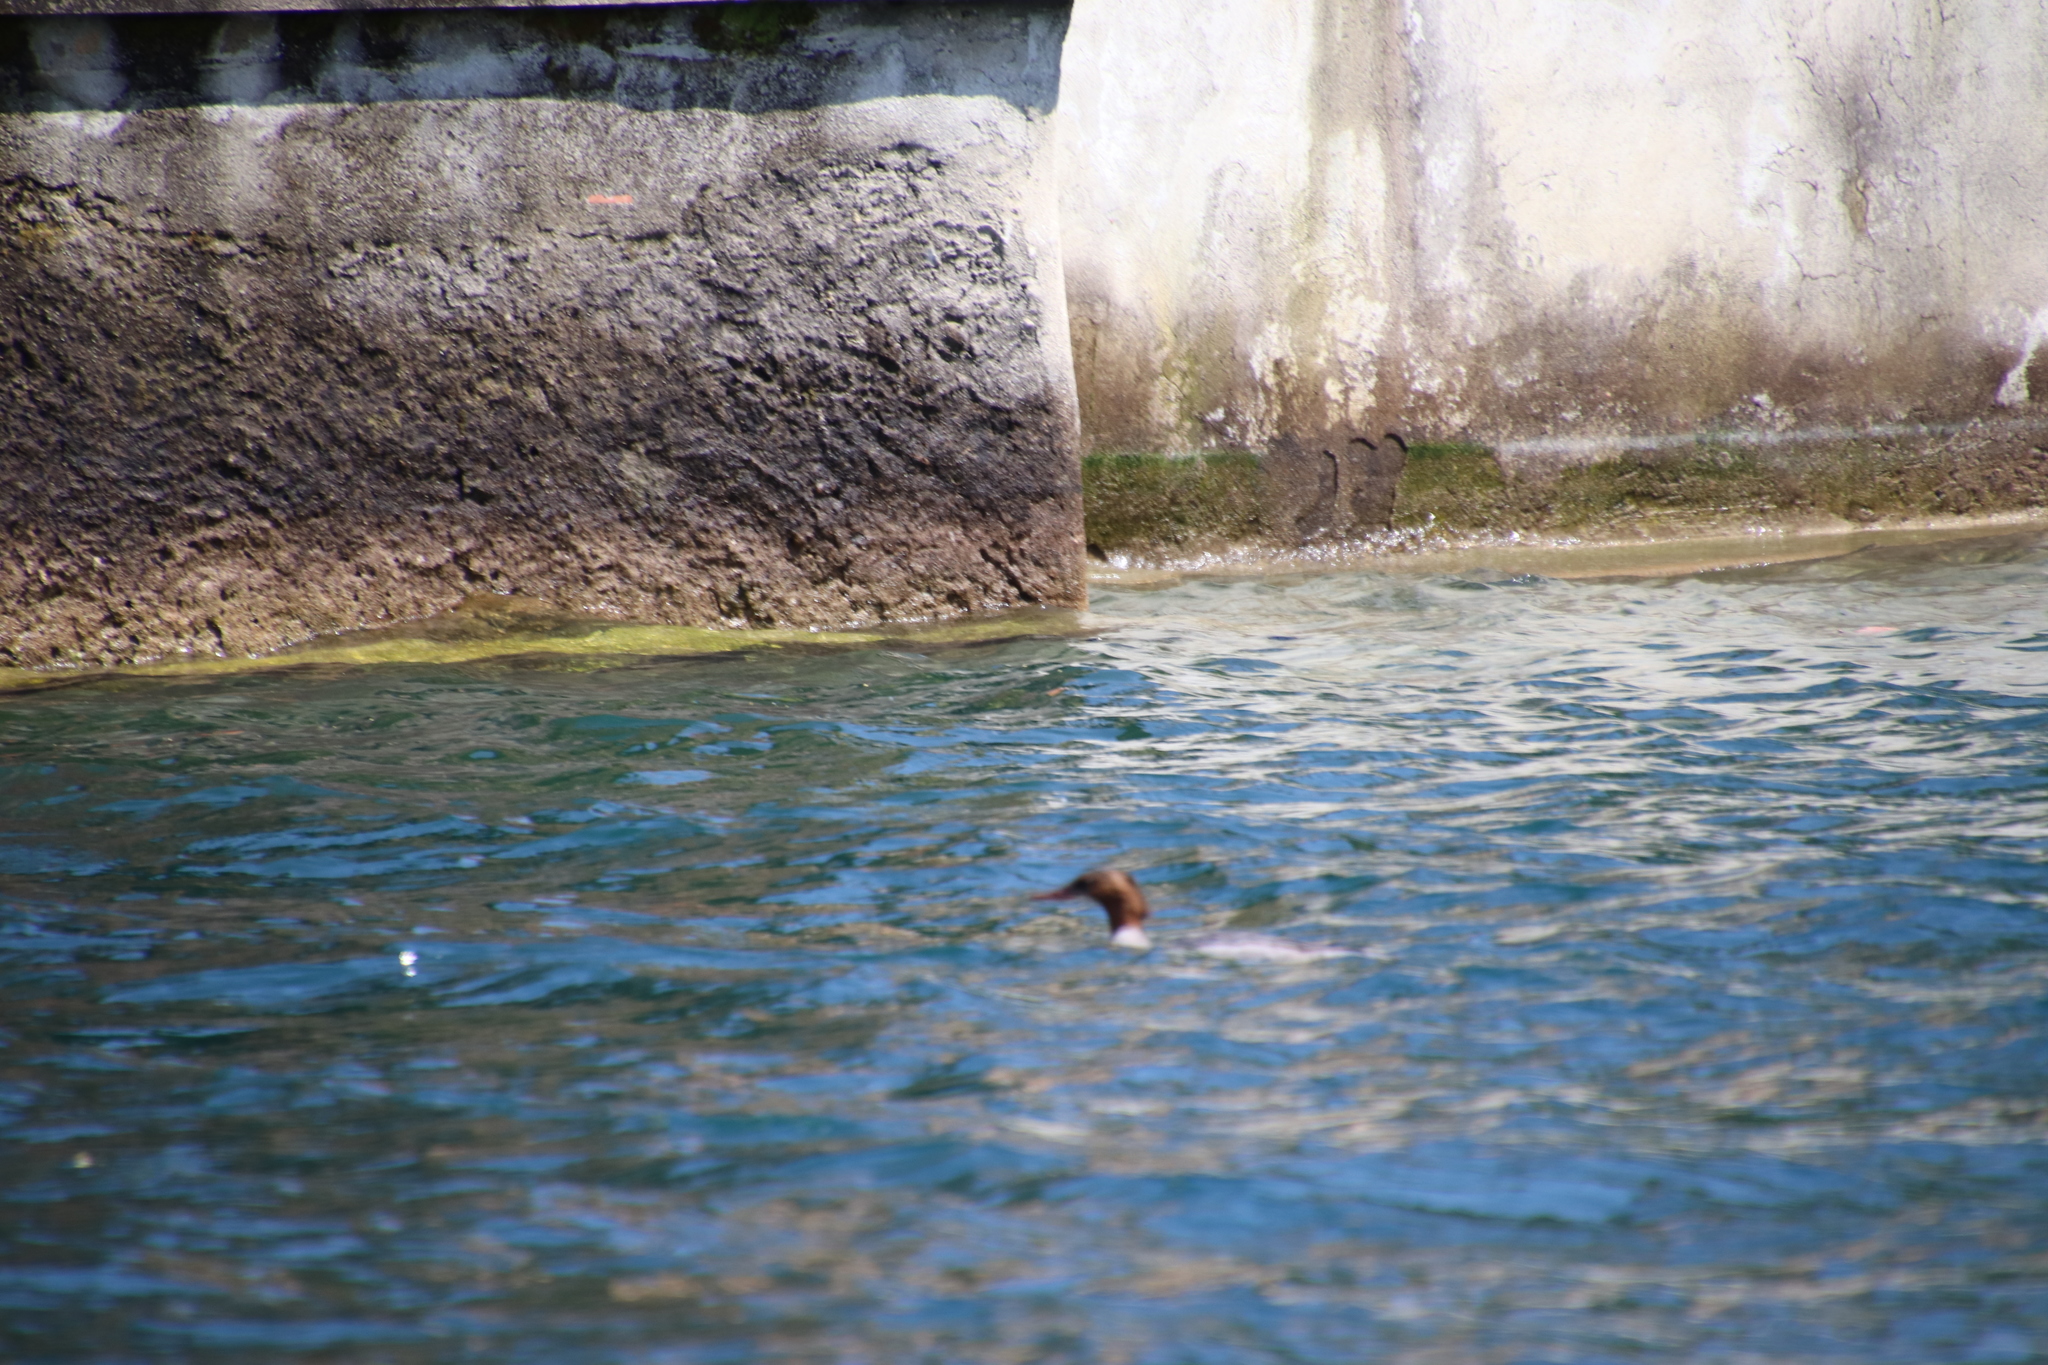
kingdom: Animalia
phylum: Chordata
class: Aves
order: Anseriformes
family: Anatidae
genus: Mergus
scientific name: Mergus merganser
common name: Common merganser
